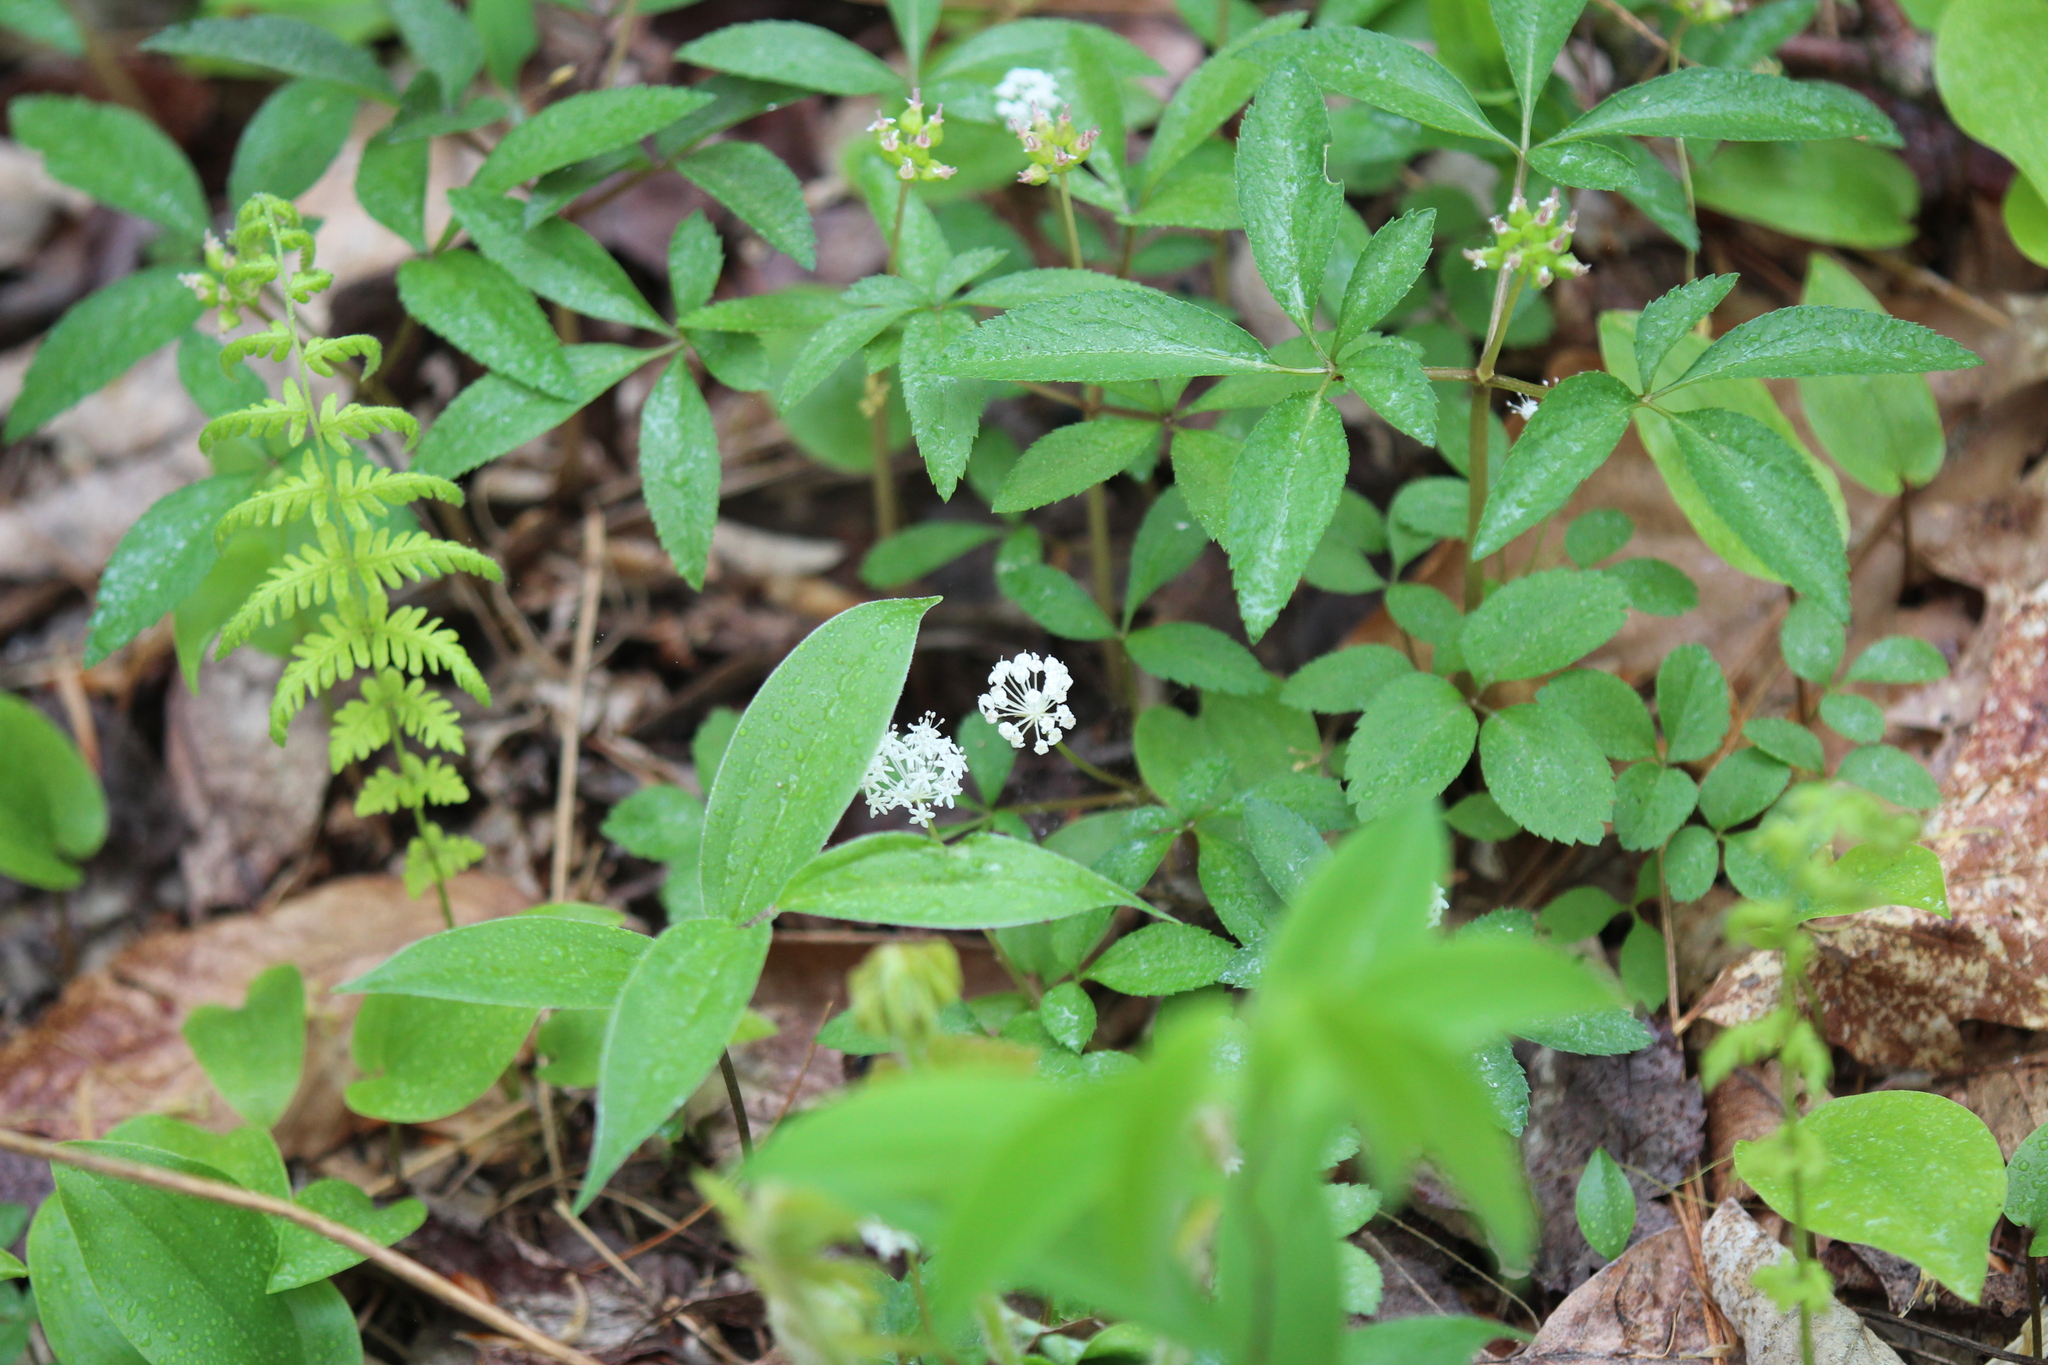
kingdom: Plantae
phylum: Tracheophyta
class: Magnoliopsida
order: Apiales
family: Araliaceae
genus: Panax
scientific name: Panax trifolius
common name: Dwarf ginseng
